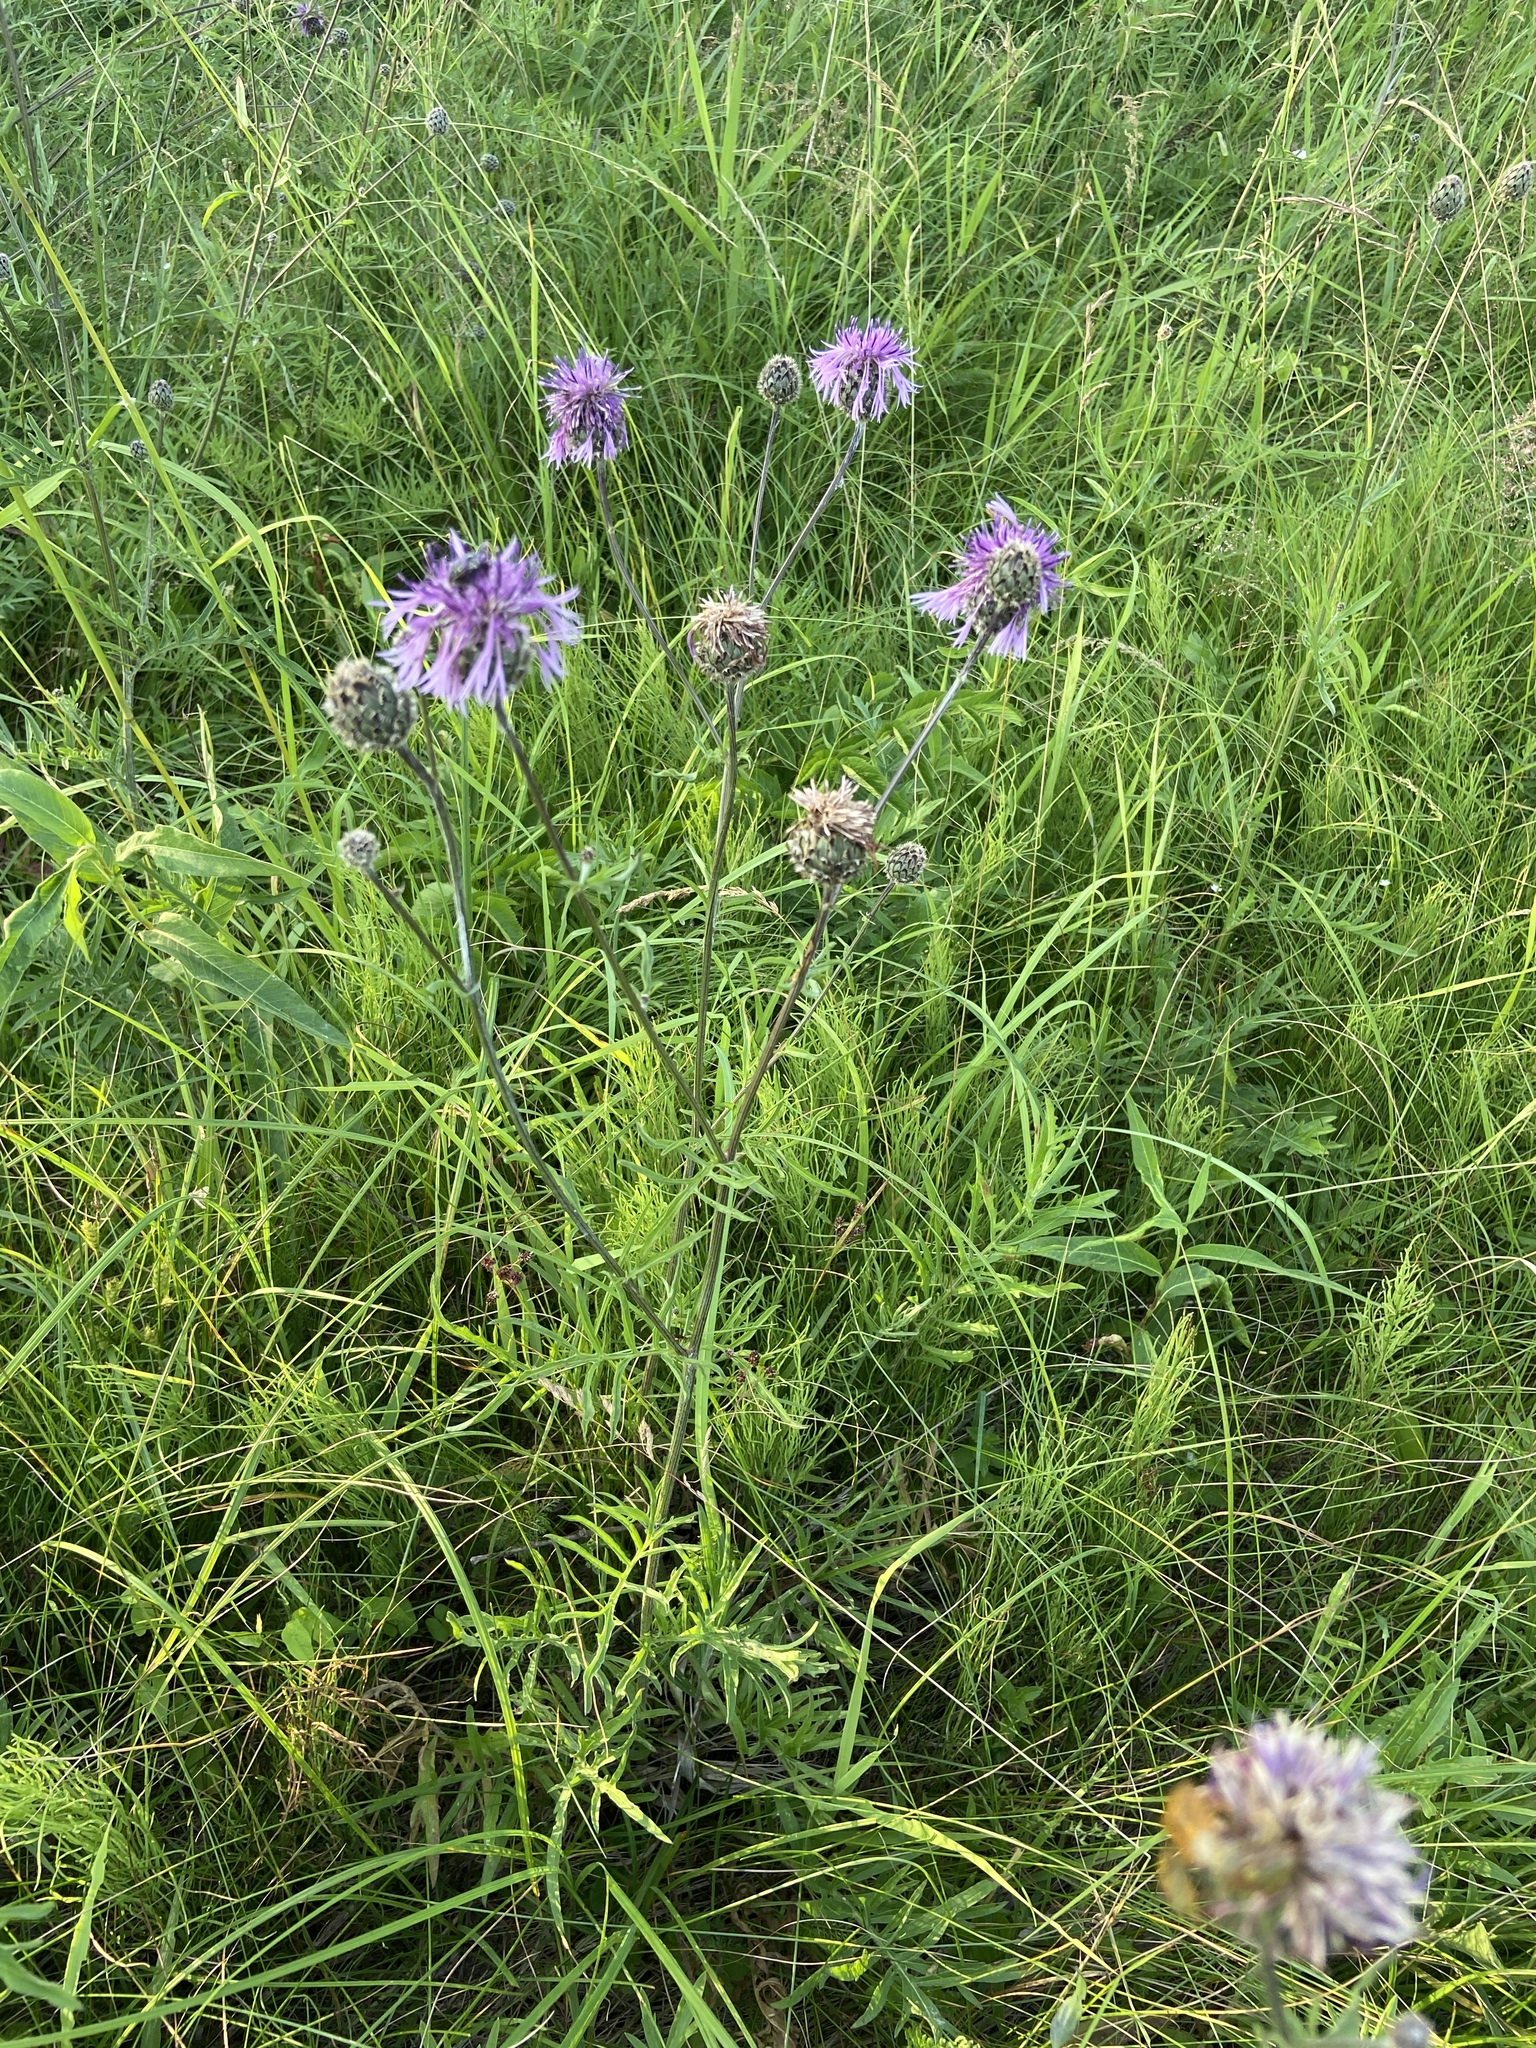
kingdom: Plantae
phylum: Tracheophyta
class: Magnoliopsida
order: Asterales
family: Asteraceae
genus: Centaurea
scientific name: Centaurea scabiosa
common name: Greater knapweed
